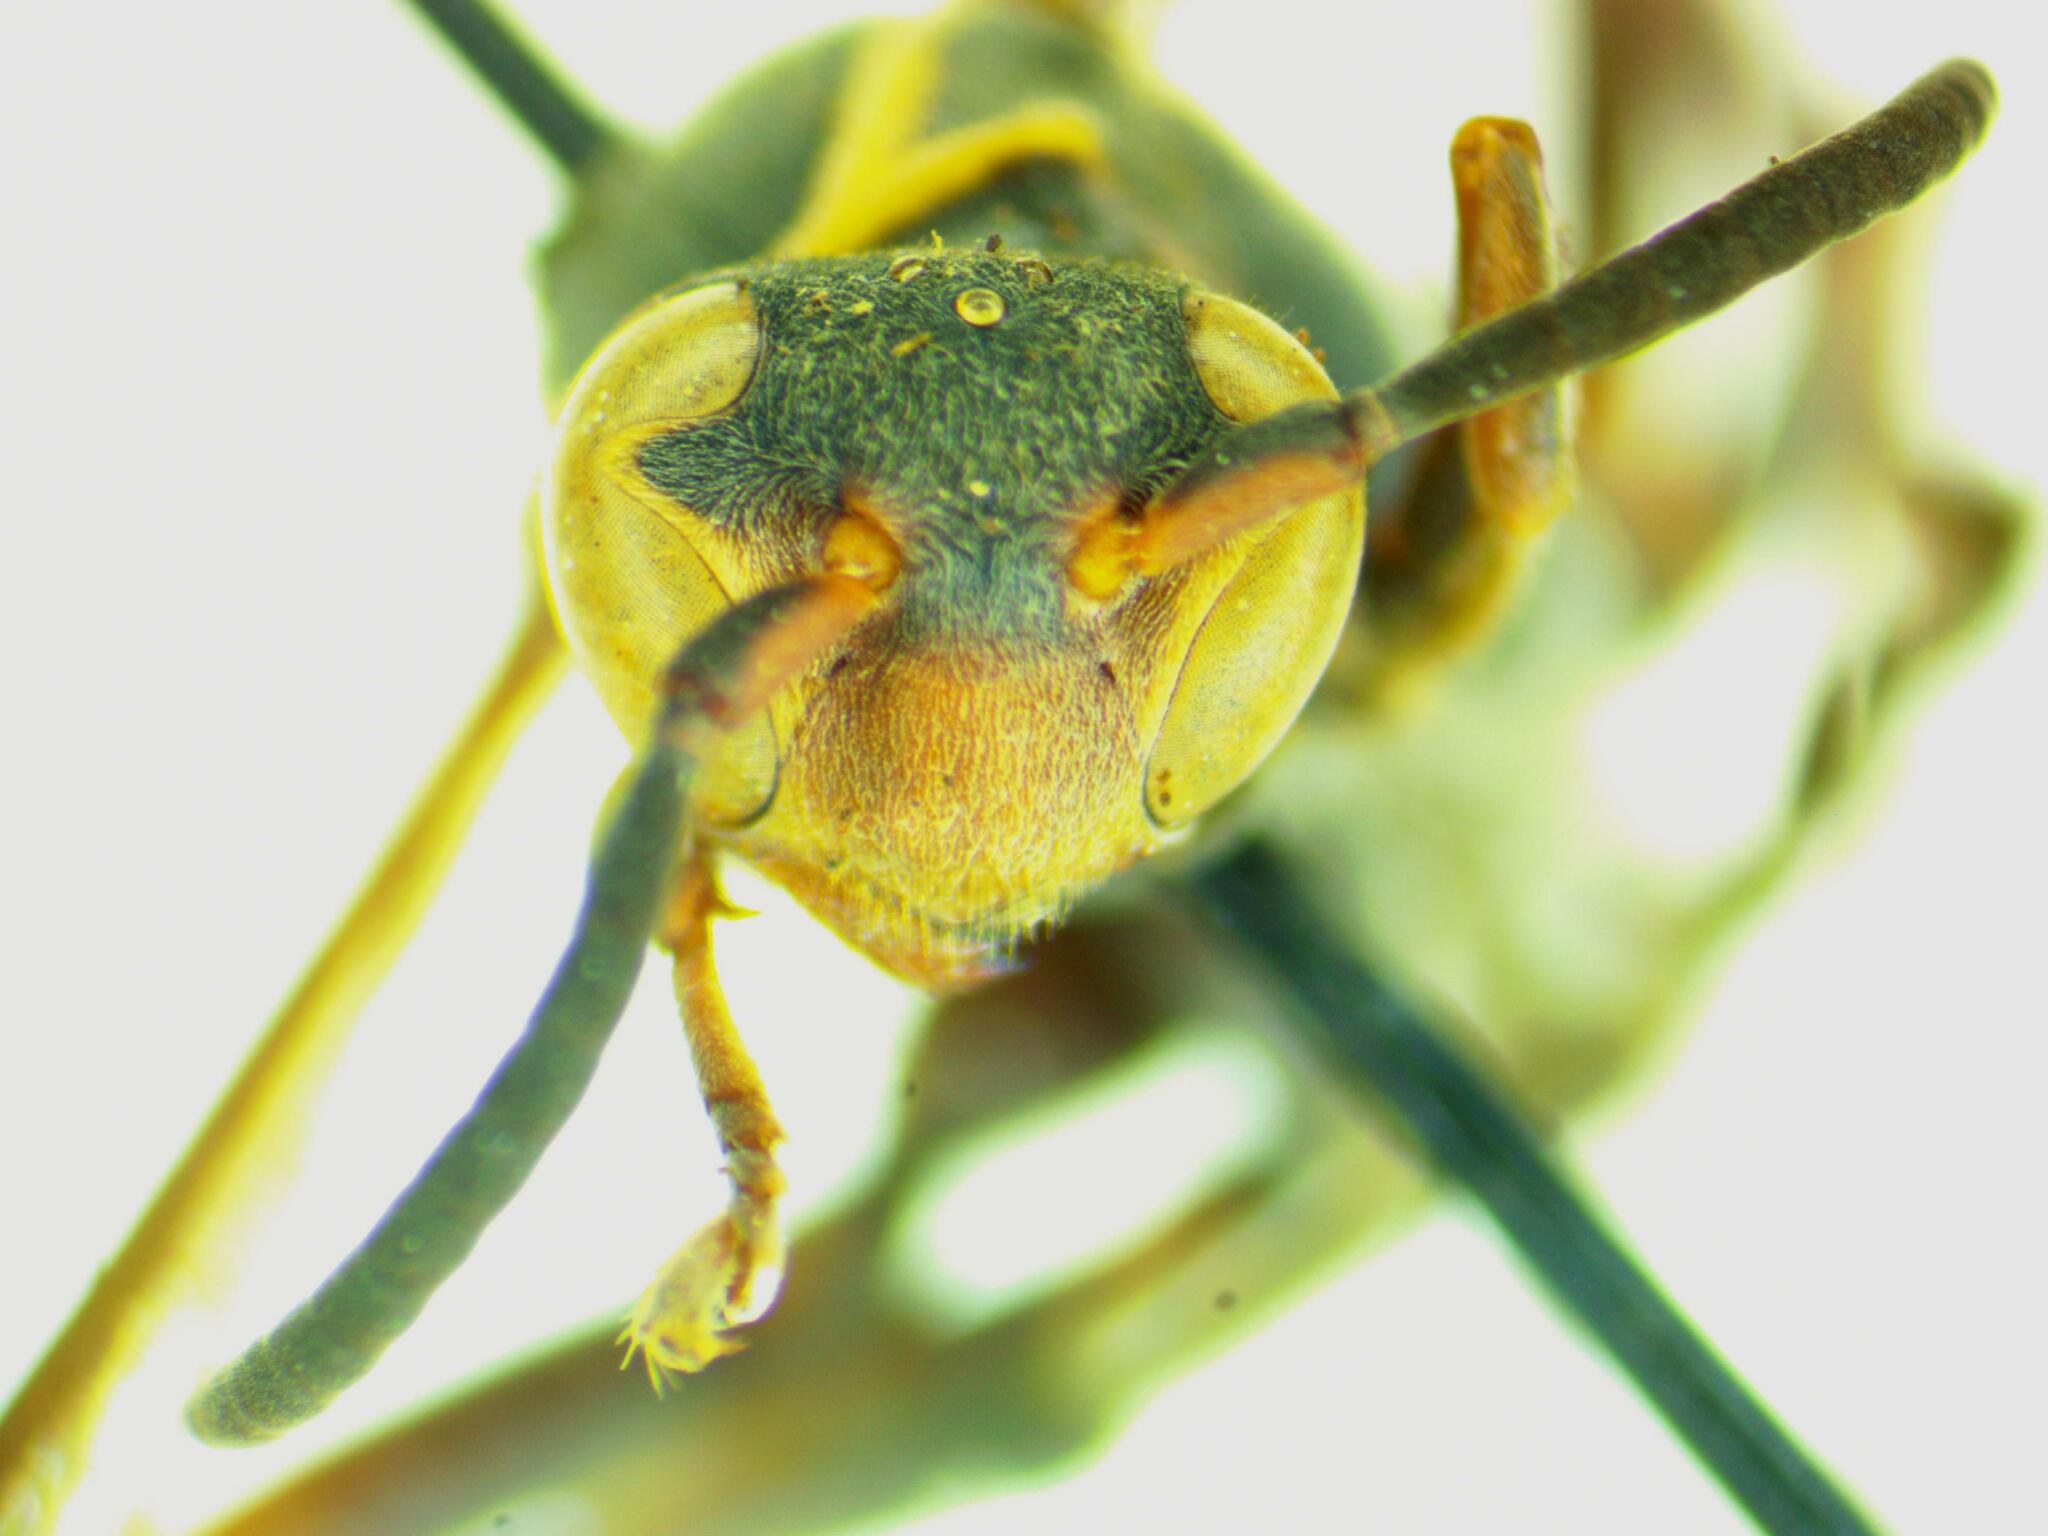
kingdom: Animalia
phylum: Arthropoda
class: Insecta
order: Hymenoptera
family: Vespidae
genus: Mischocyttarus
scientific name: Mischocyttarus rufidens
